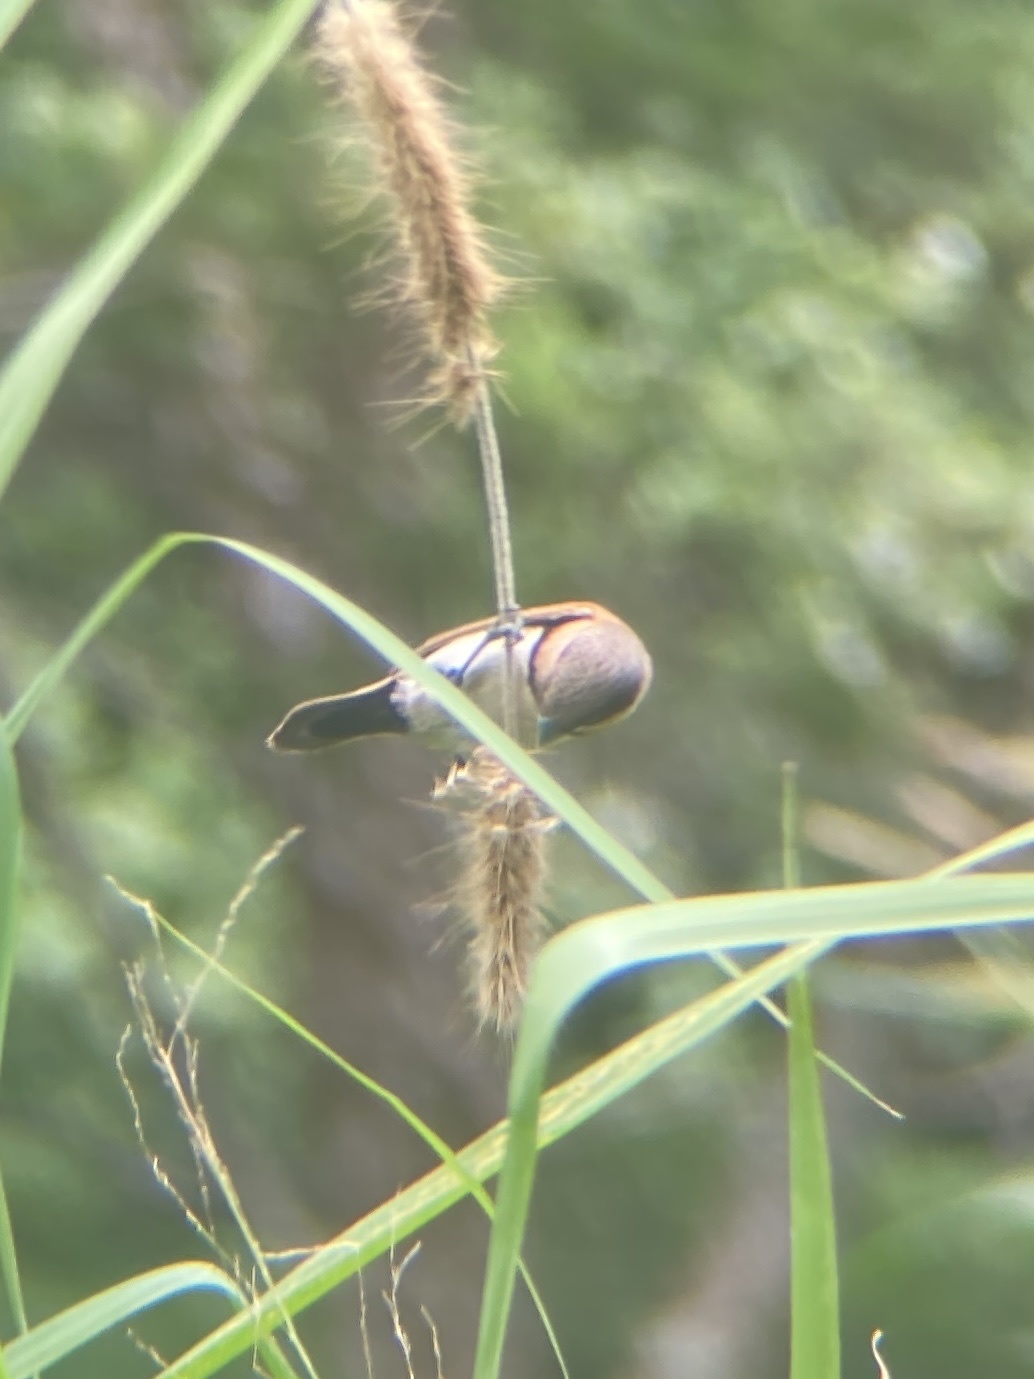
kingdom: Animalia
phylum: Chordata
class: Aves
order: Passeriformes
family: Estrildidae
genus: Lonchura
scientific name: Lonchura castaneothorax
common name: Chestnut-breasted mannikin
